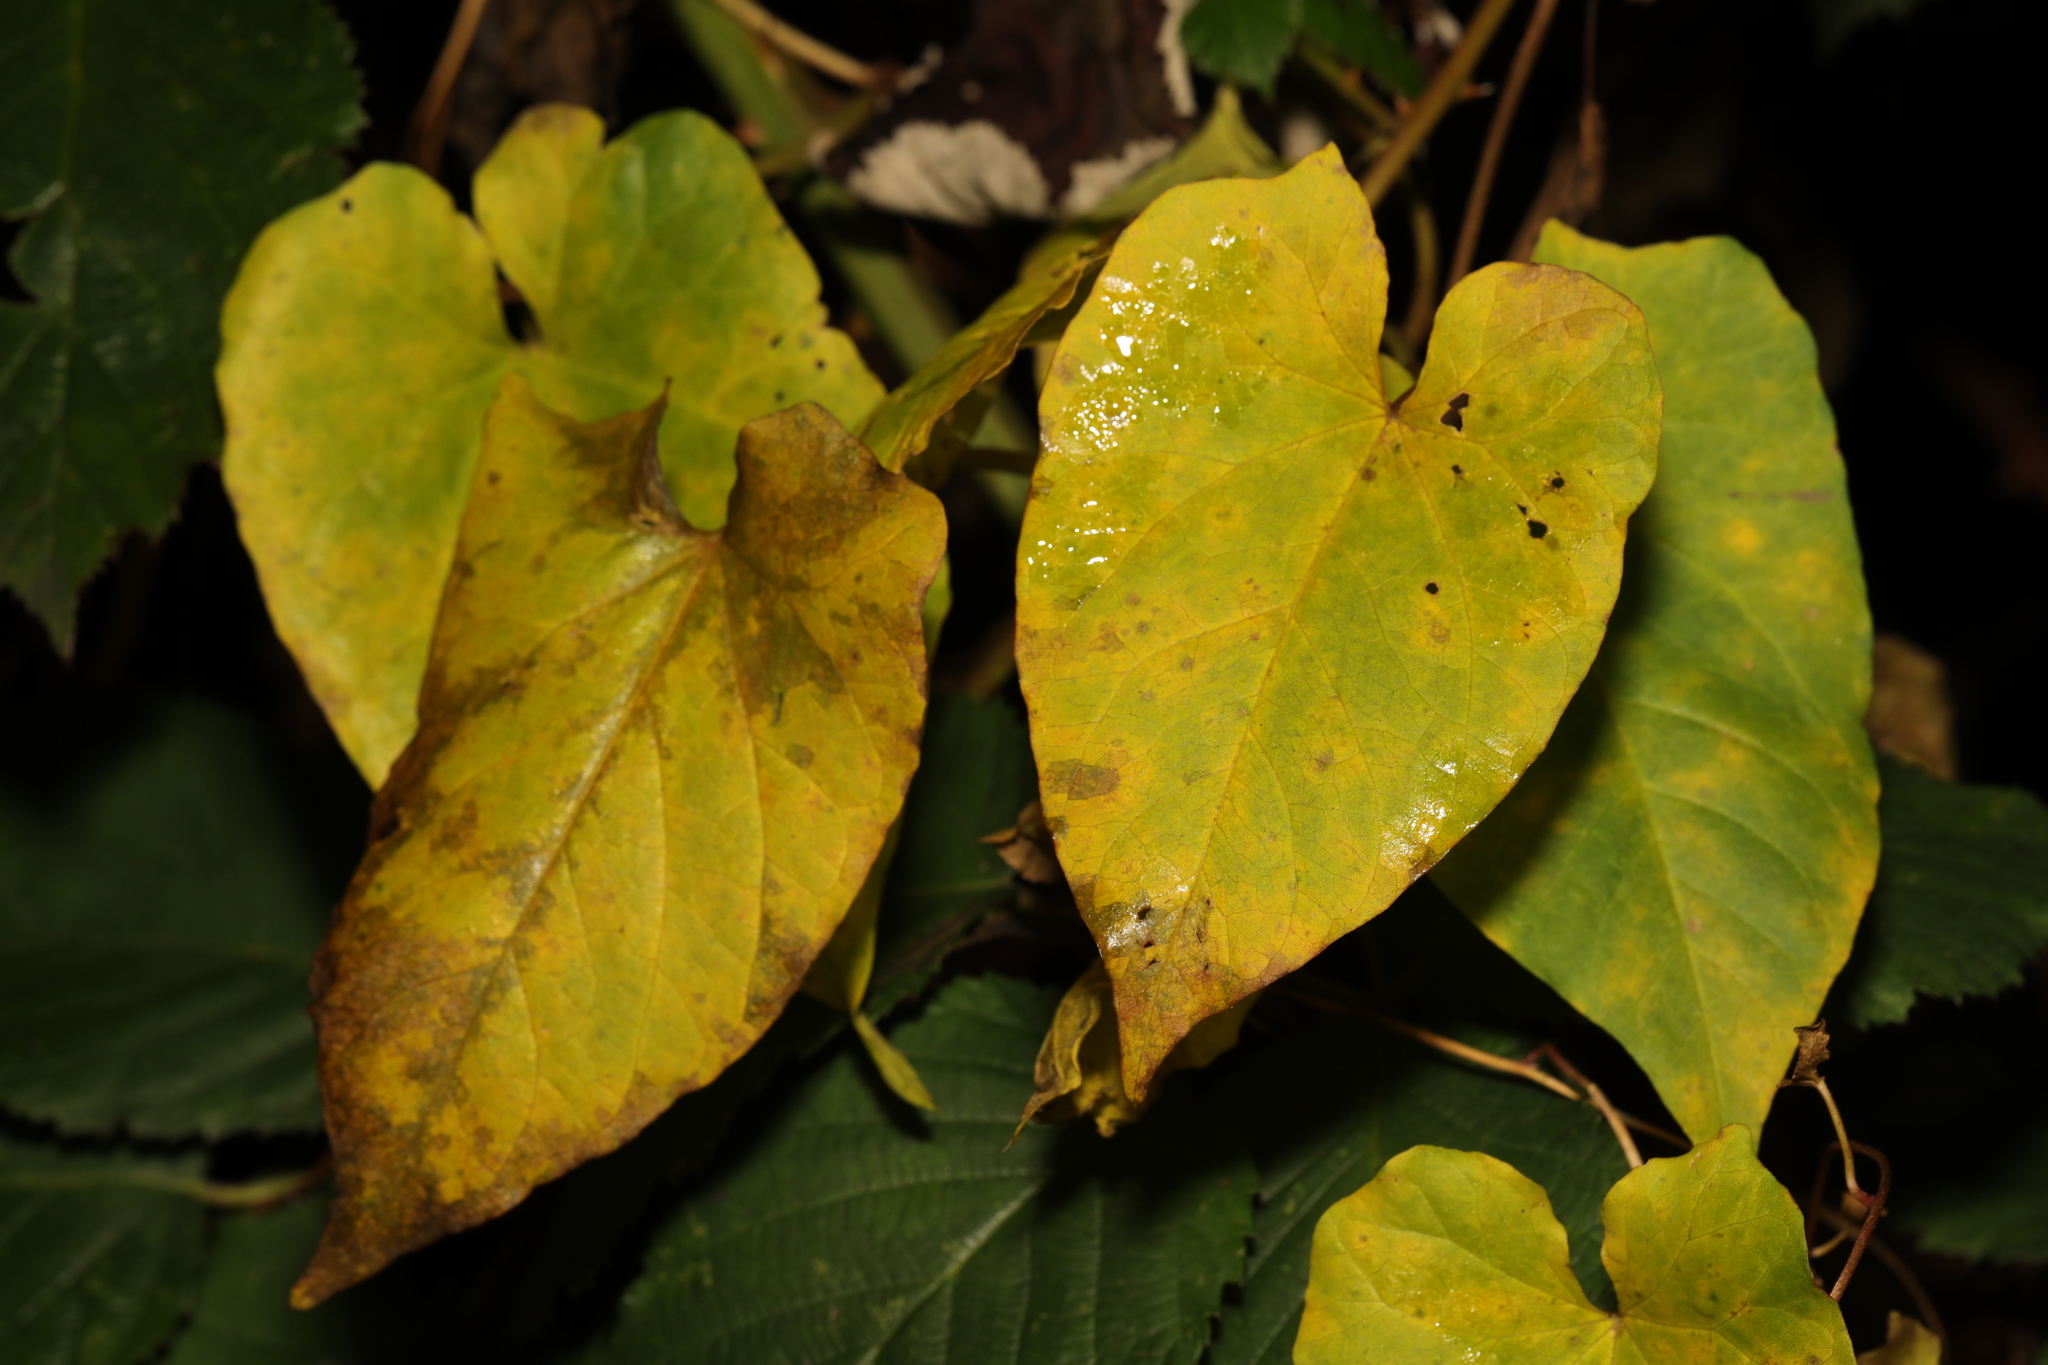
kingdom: Plantae
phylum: Tracheophyta
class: Magnoliopsida
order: Solanales
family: Convolvulaceae
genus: Calystegia
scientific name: Calystegia silvatica
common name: Large bindweed
